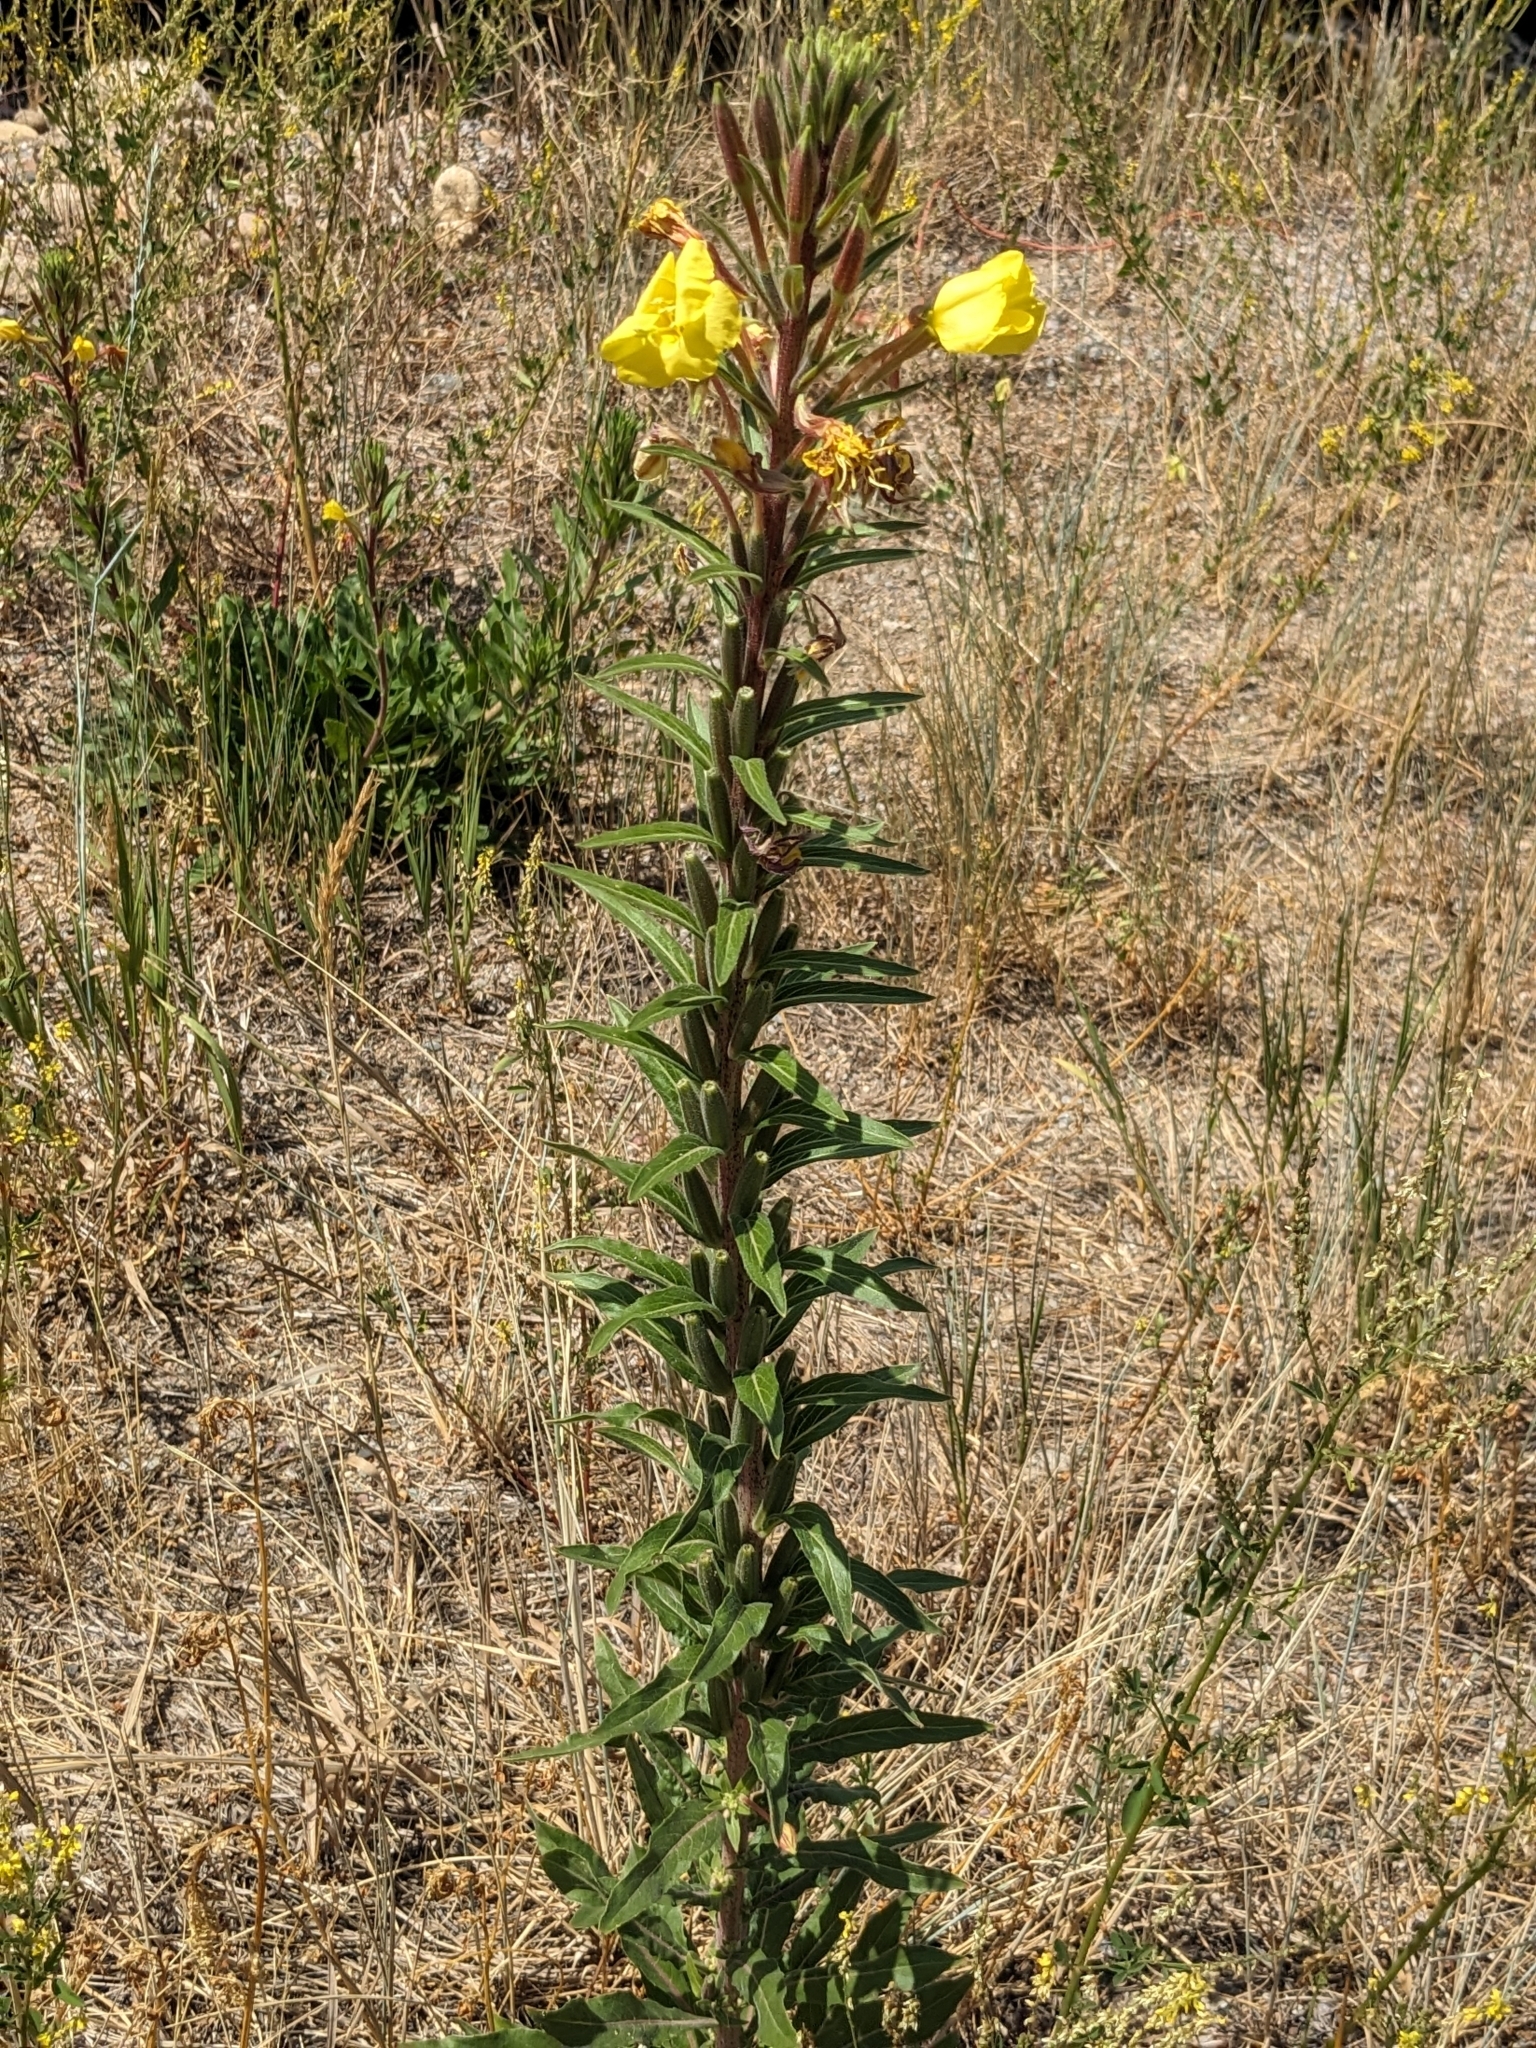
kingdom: Plantae
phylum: Tracheophyta
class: Magnoliopsida
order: Myrtales
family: Onagraceae
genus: Oenothera
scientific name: Oenothera elata
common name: Hooker's evening-primrose
